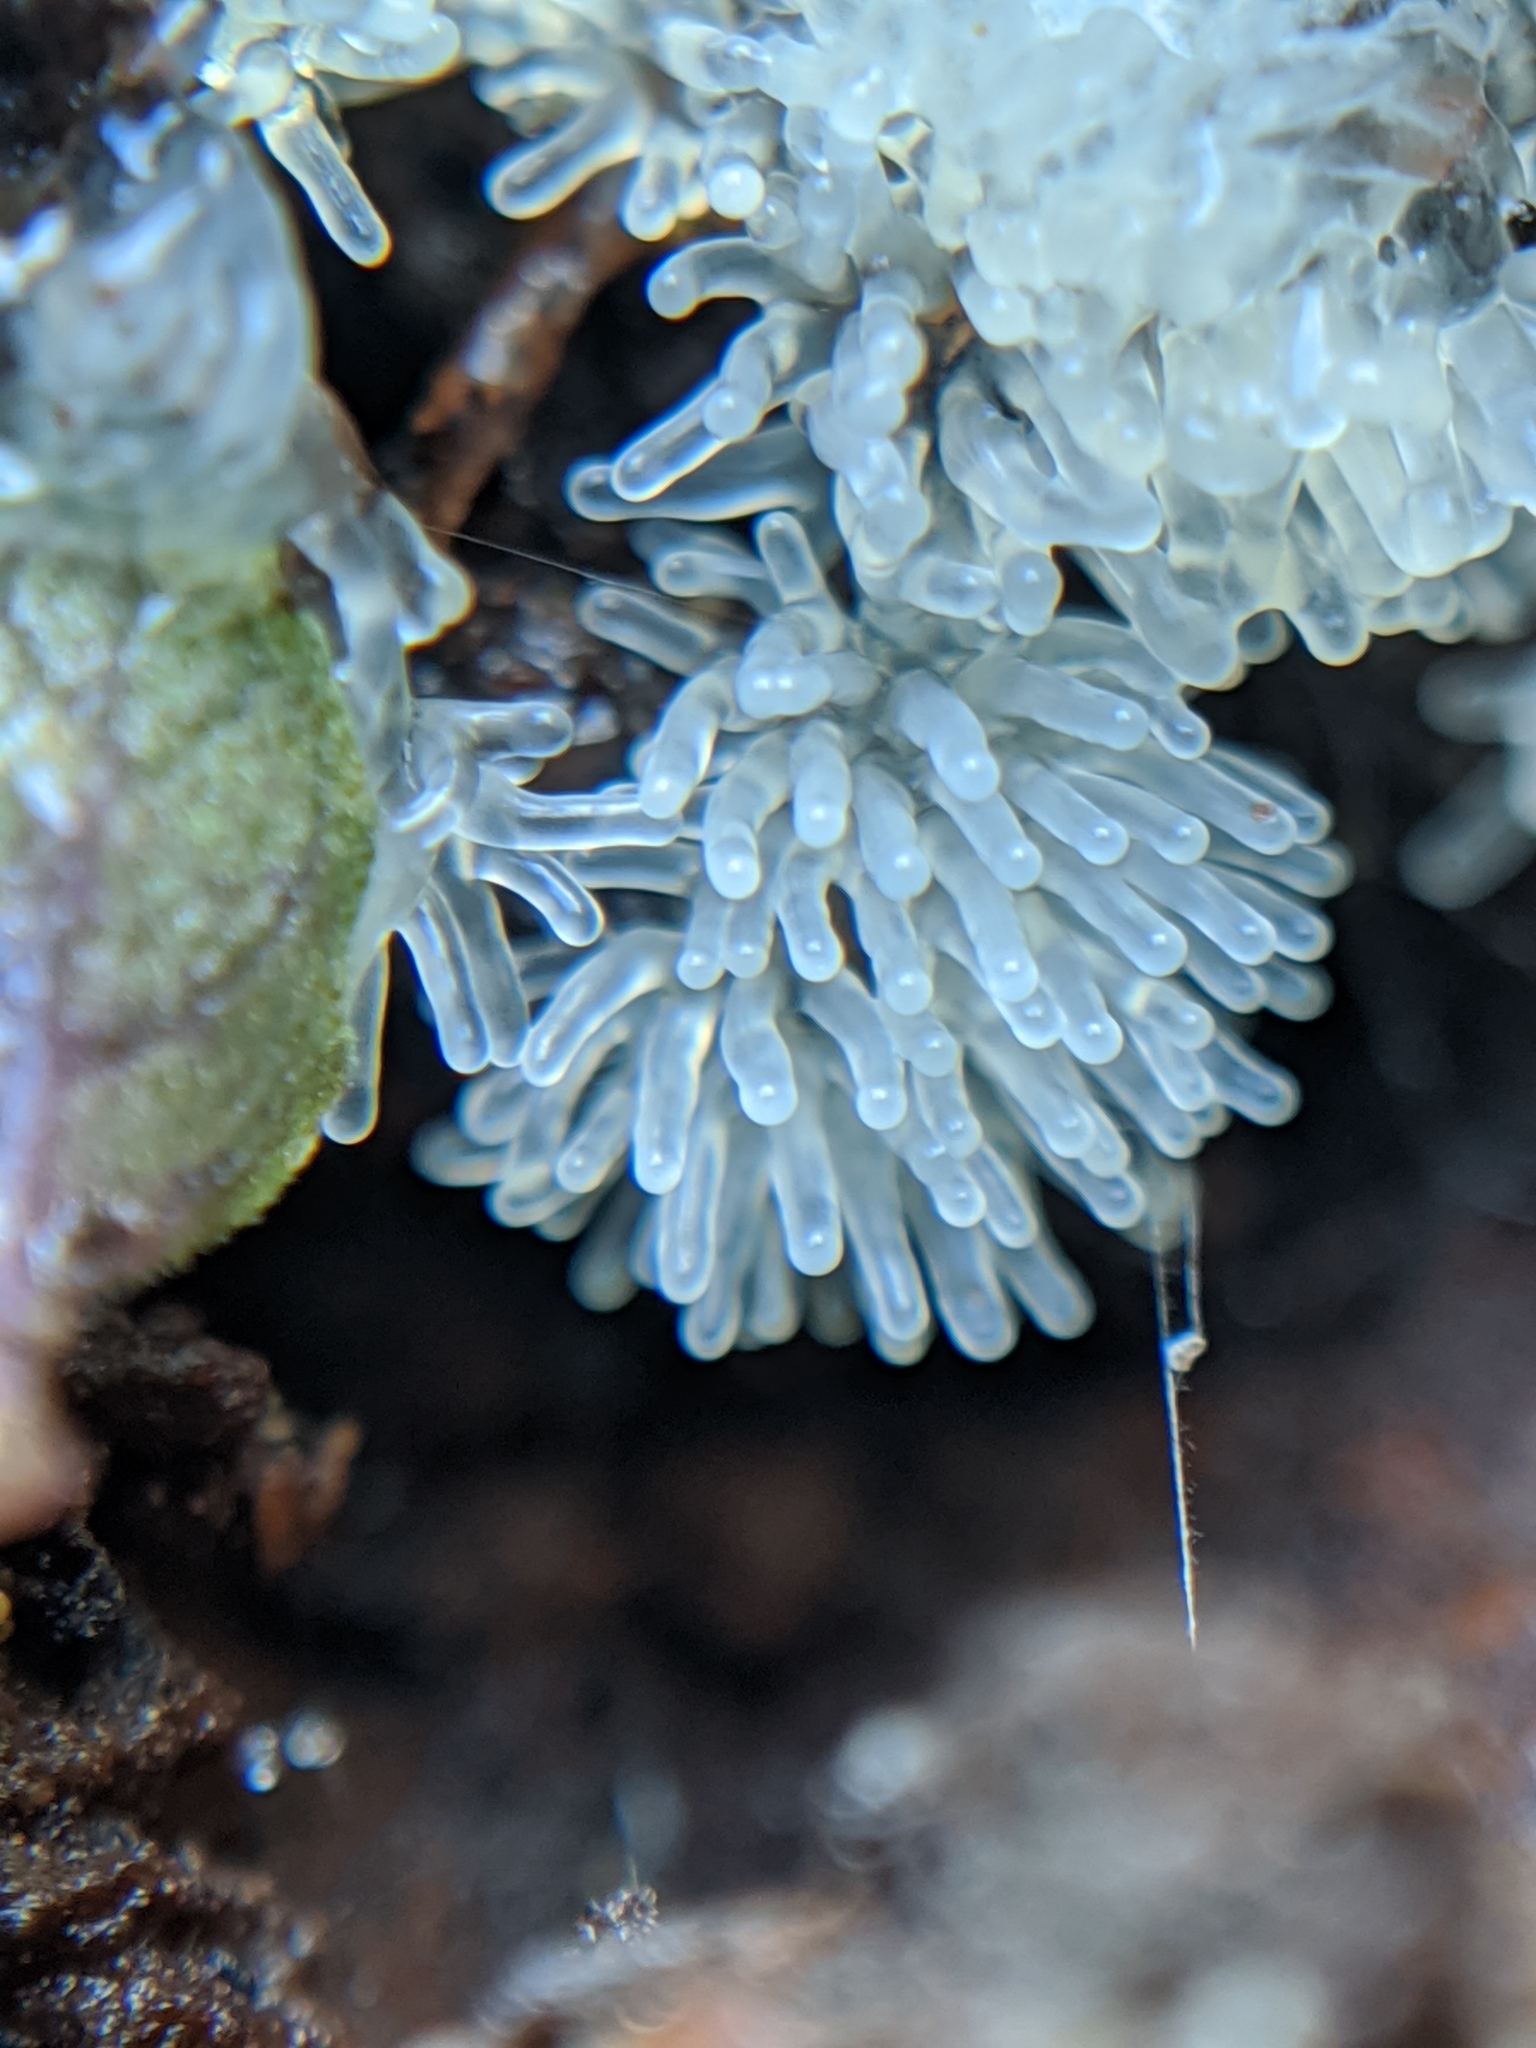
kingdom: Protozoa
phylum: Mycetozoa
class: Protosteliomycetes
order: Ceratiomyxales
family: Ceratiomyxaceae
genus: Ceratiomyxa
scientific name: Ceratiomyxa fruticulosa
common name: Honeycomb coral slime mold
